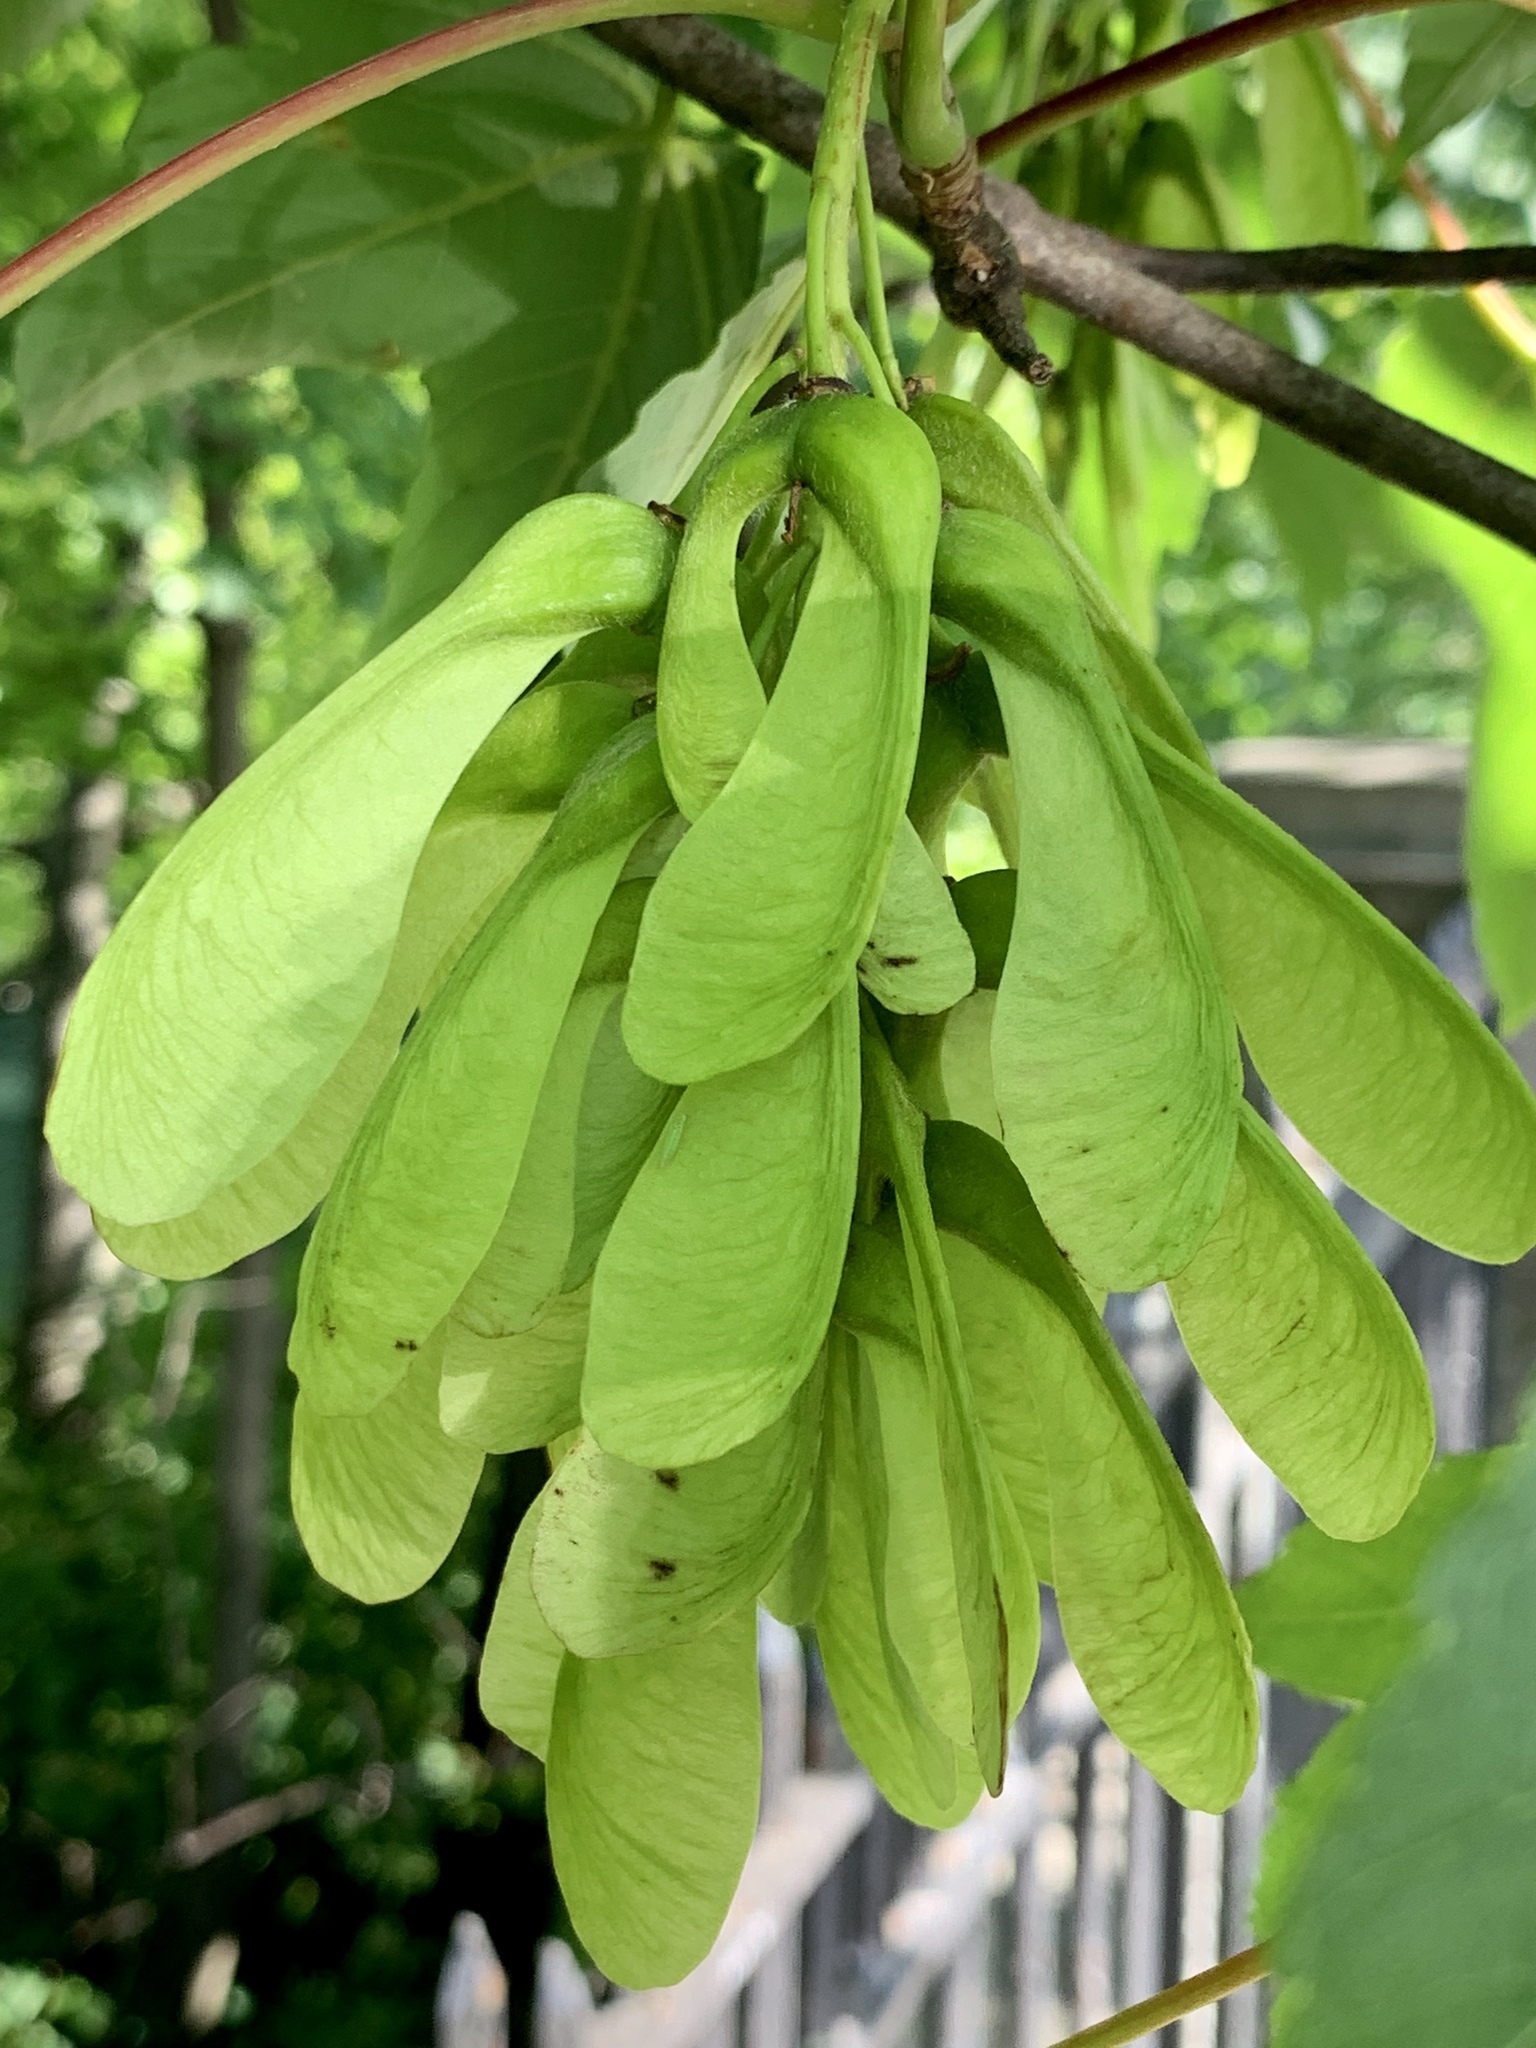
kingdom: Plantae
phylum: Tracheophyta
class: Magnoliopsida
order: Sapindales
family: Sapindaceae
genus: Acer
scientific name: Acer pseudoplatanus
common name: Sycamore
